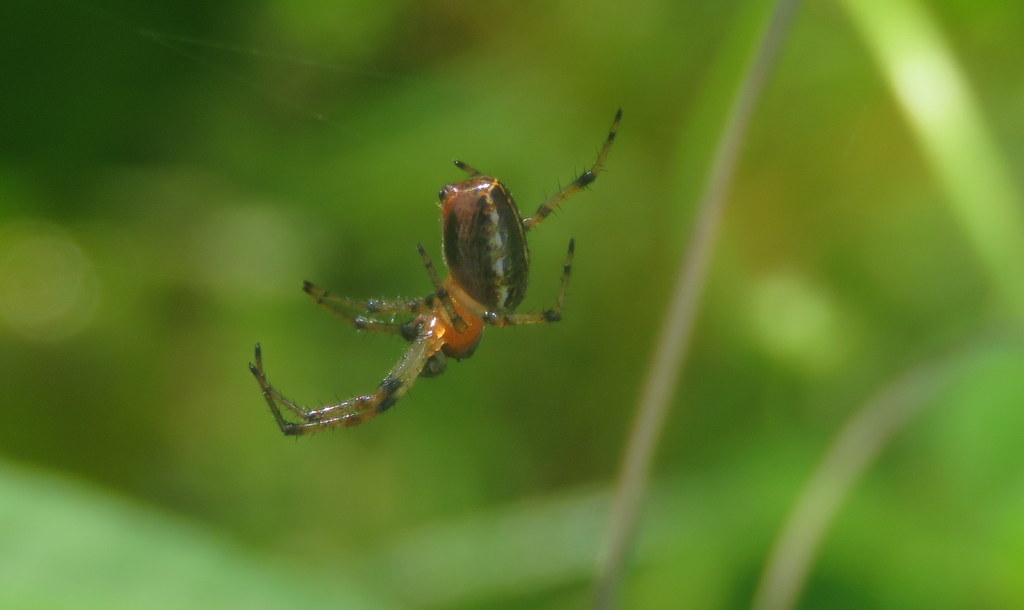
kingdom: Animalia
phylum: Arthropoda
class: Arachnida
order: Araneae
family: Araneidae
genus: Alpaida
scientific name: Alpaida veniliae
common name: Orb weavers
